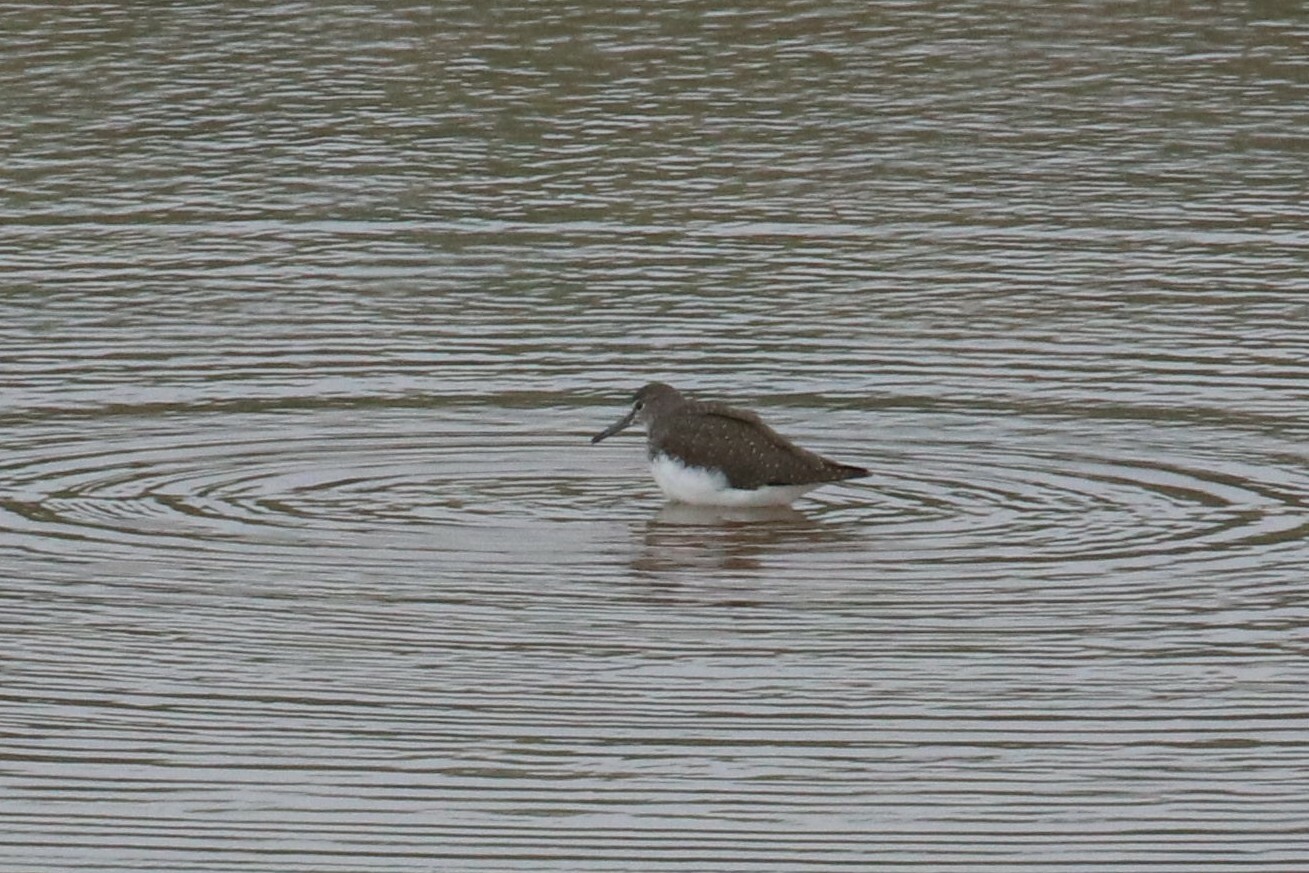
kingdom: Animalia
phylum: Chordata
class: Aves
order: Charadriiformes
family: Scolopacidae
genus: Tringa
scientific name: Tringa ochropus
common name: Green sandpiper
